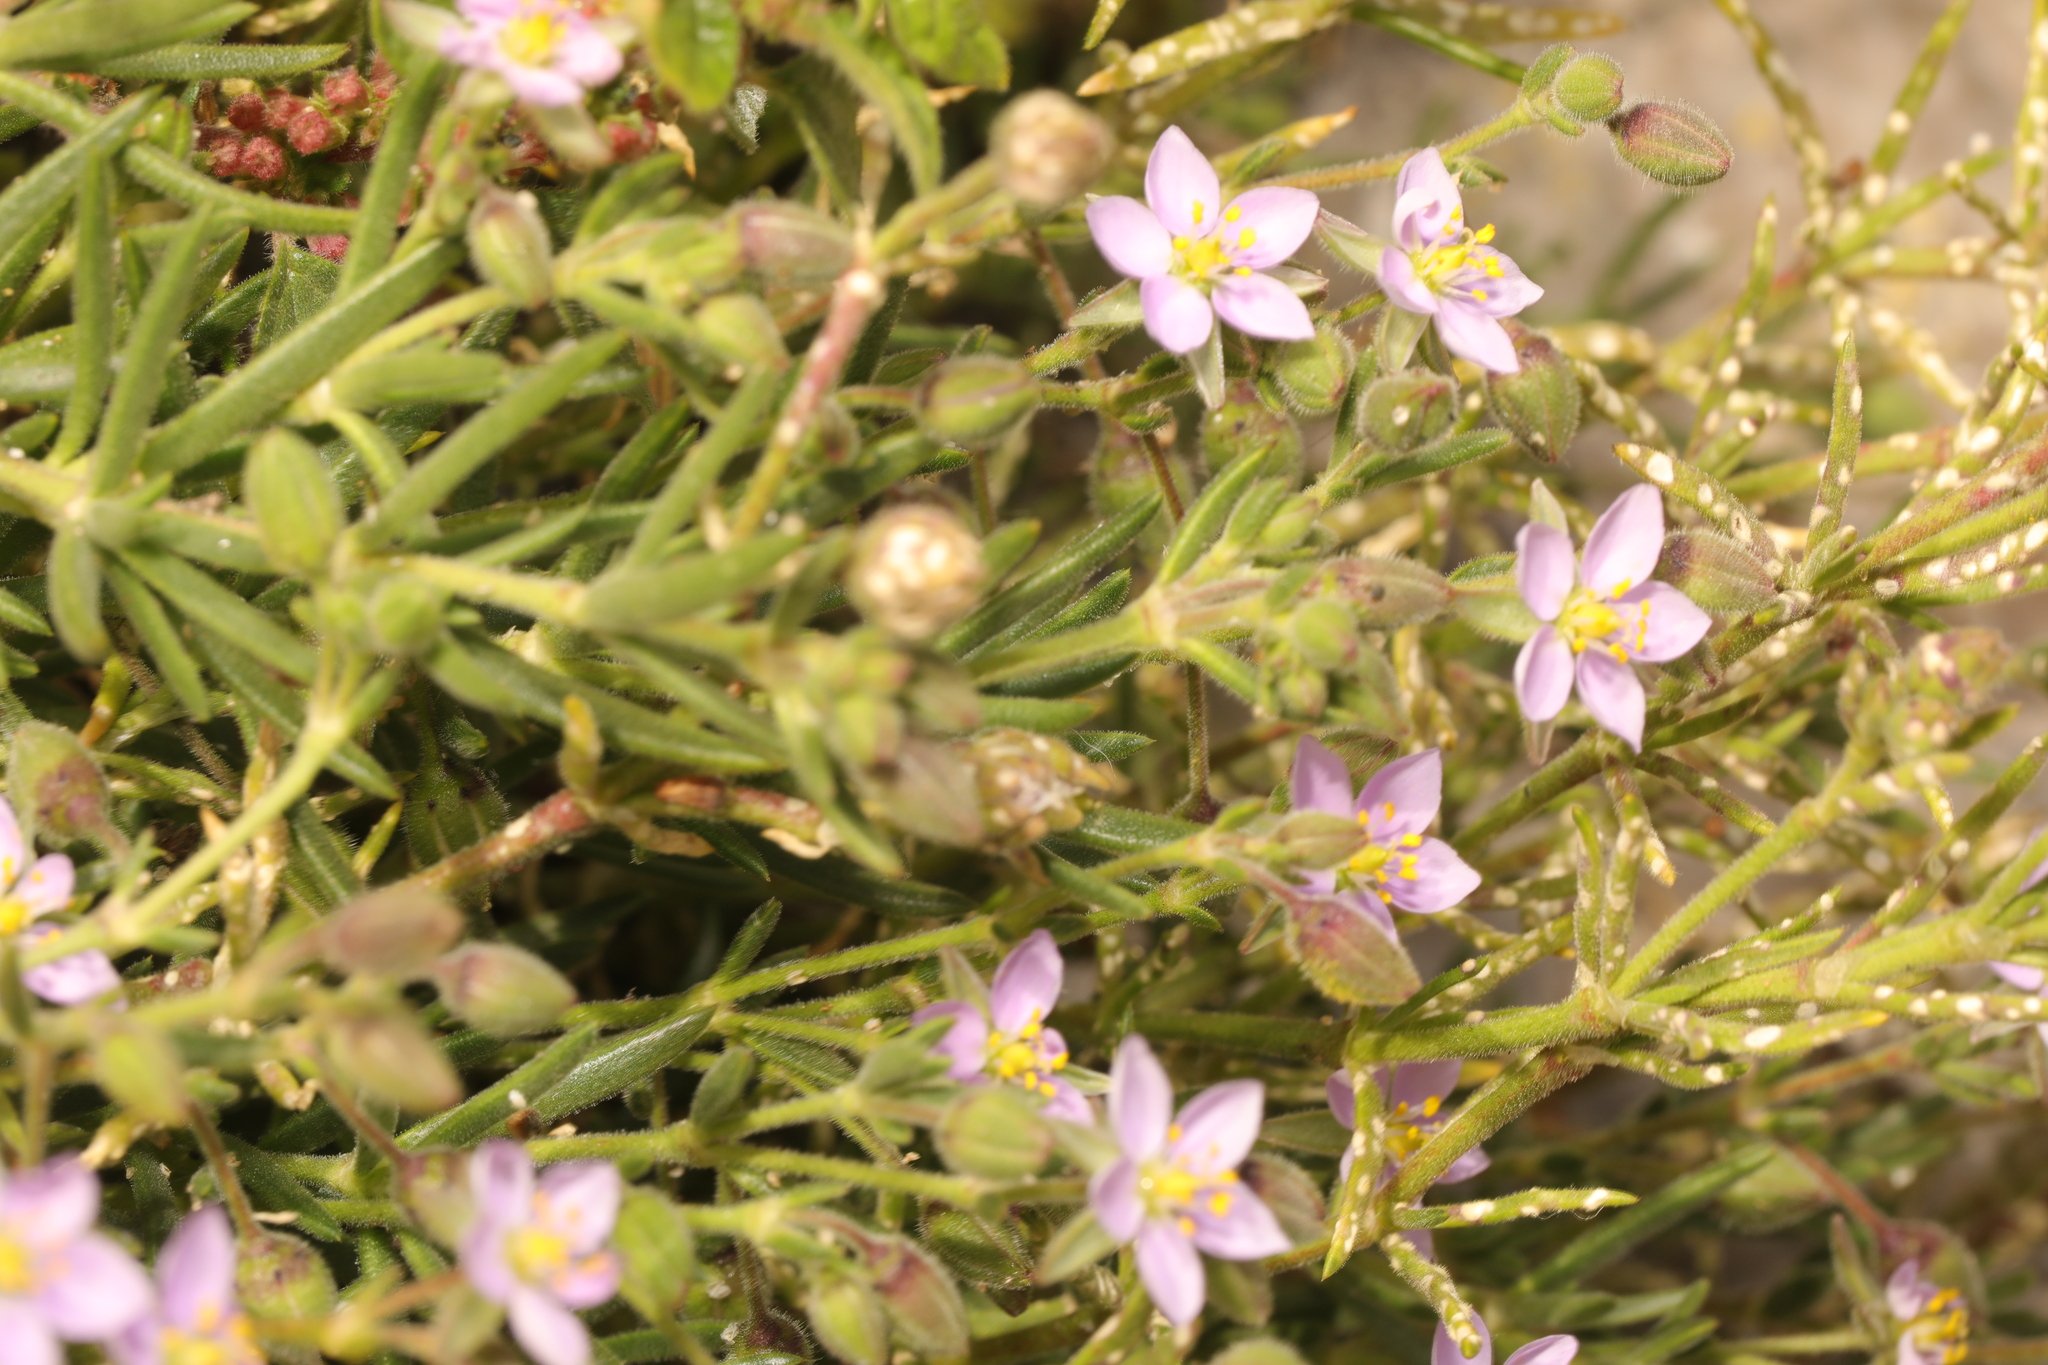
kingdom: Plantae
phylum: Tracheophyta
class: Magnoliopsida
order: Caryophyllales
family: Caryophyllaceae
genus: Spergularia
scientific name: Spergularia marina
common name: Lesser sea-spurrey
